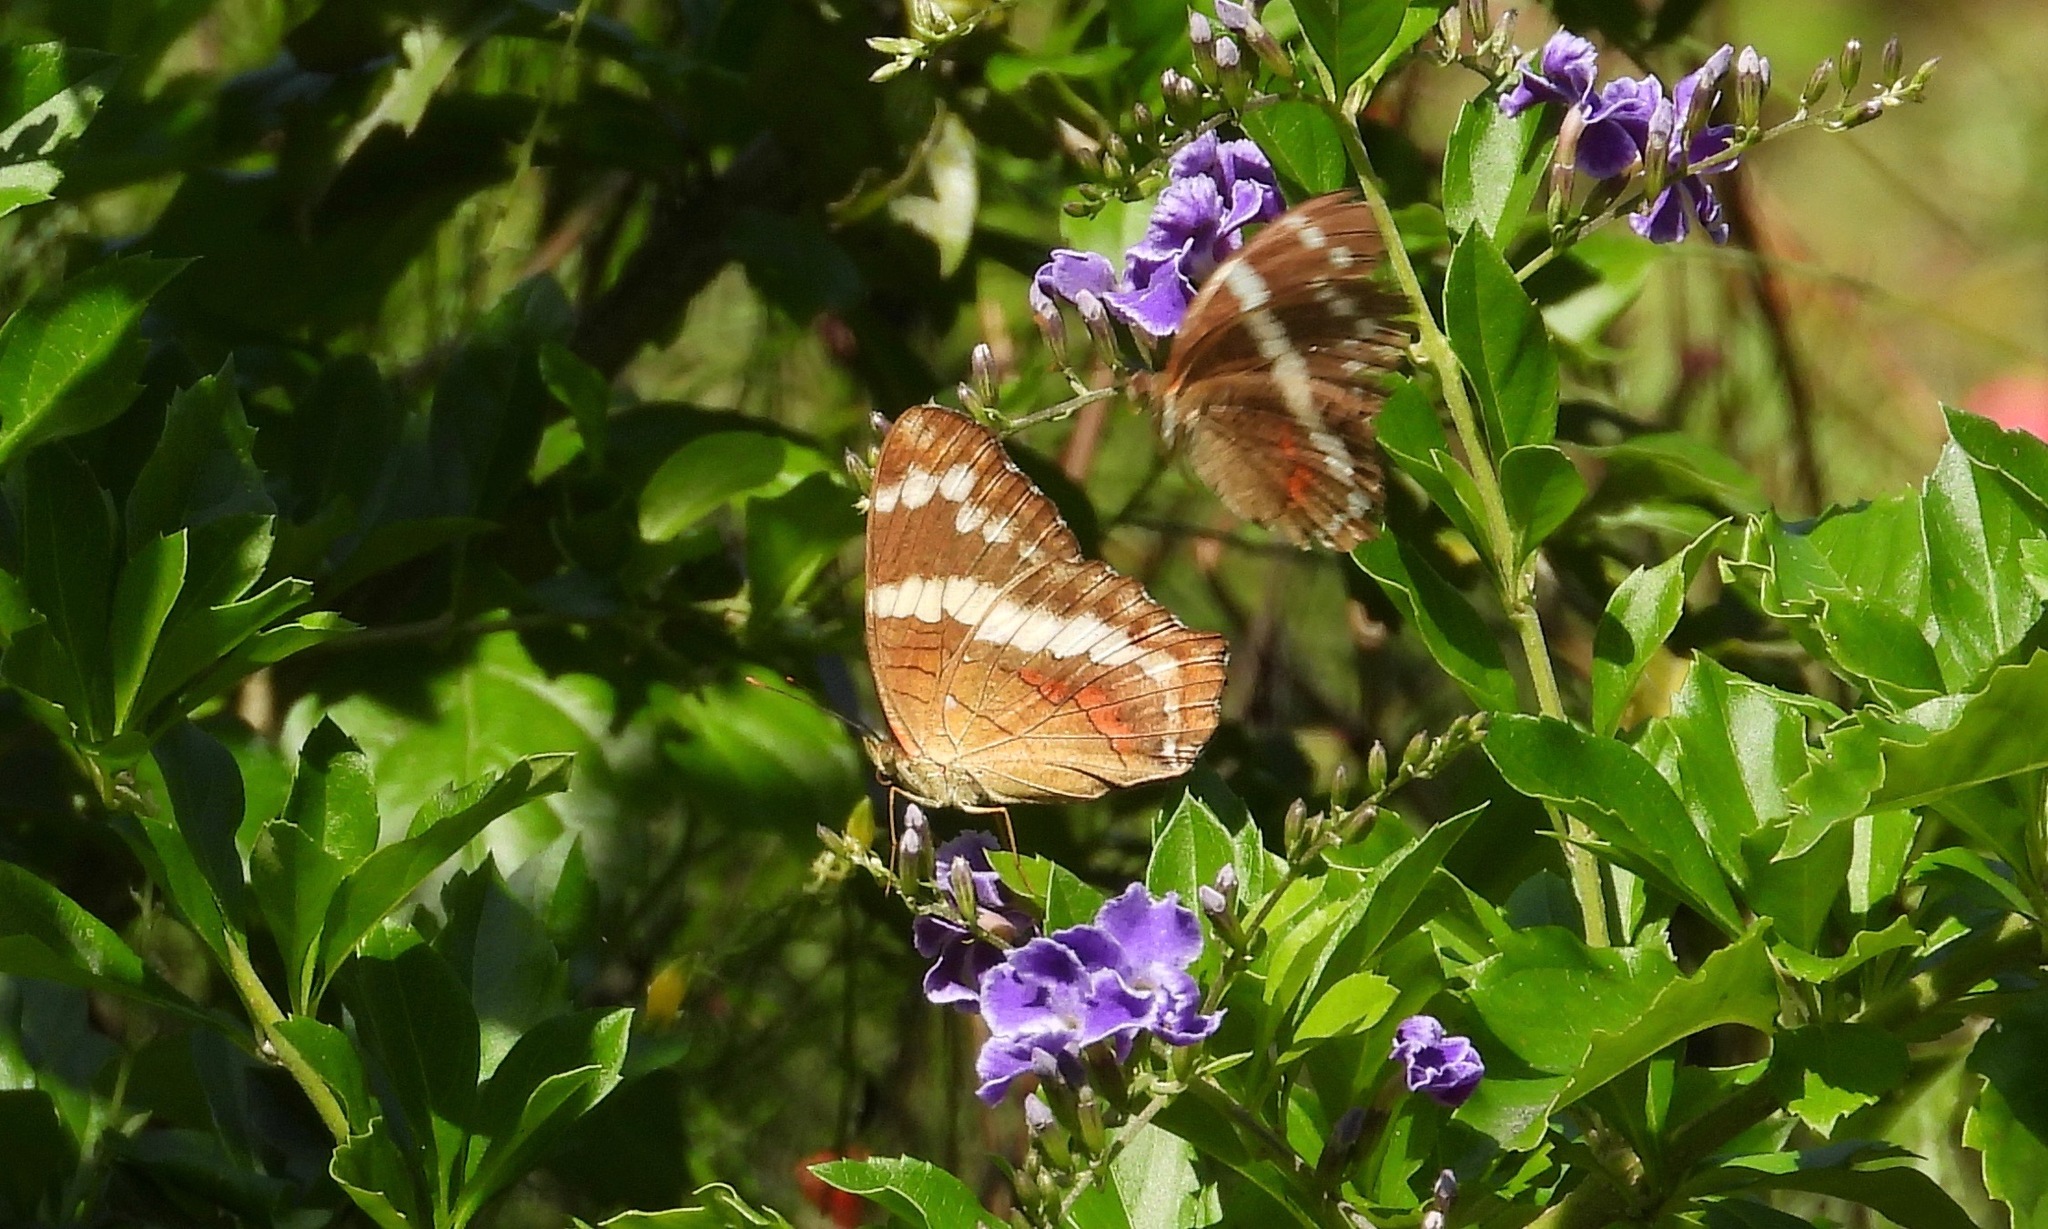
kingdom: Animalia
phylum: Arthropoda
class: Insecta
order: Lepidoptera
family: Nymphalidae
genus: Anartia
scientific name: Anartia fatima
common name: Banded peacock
